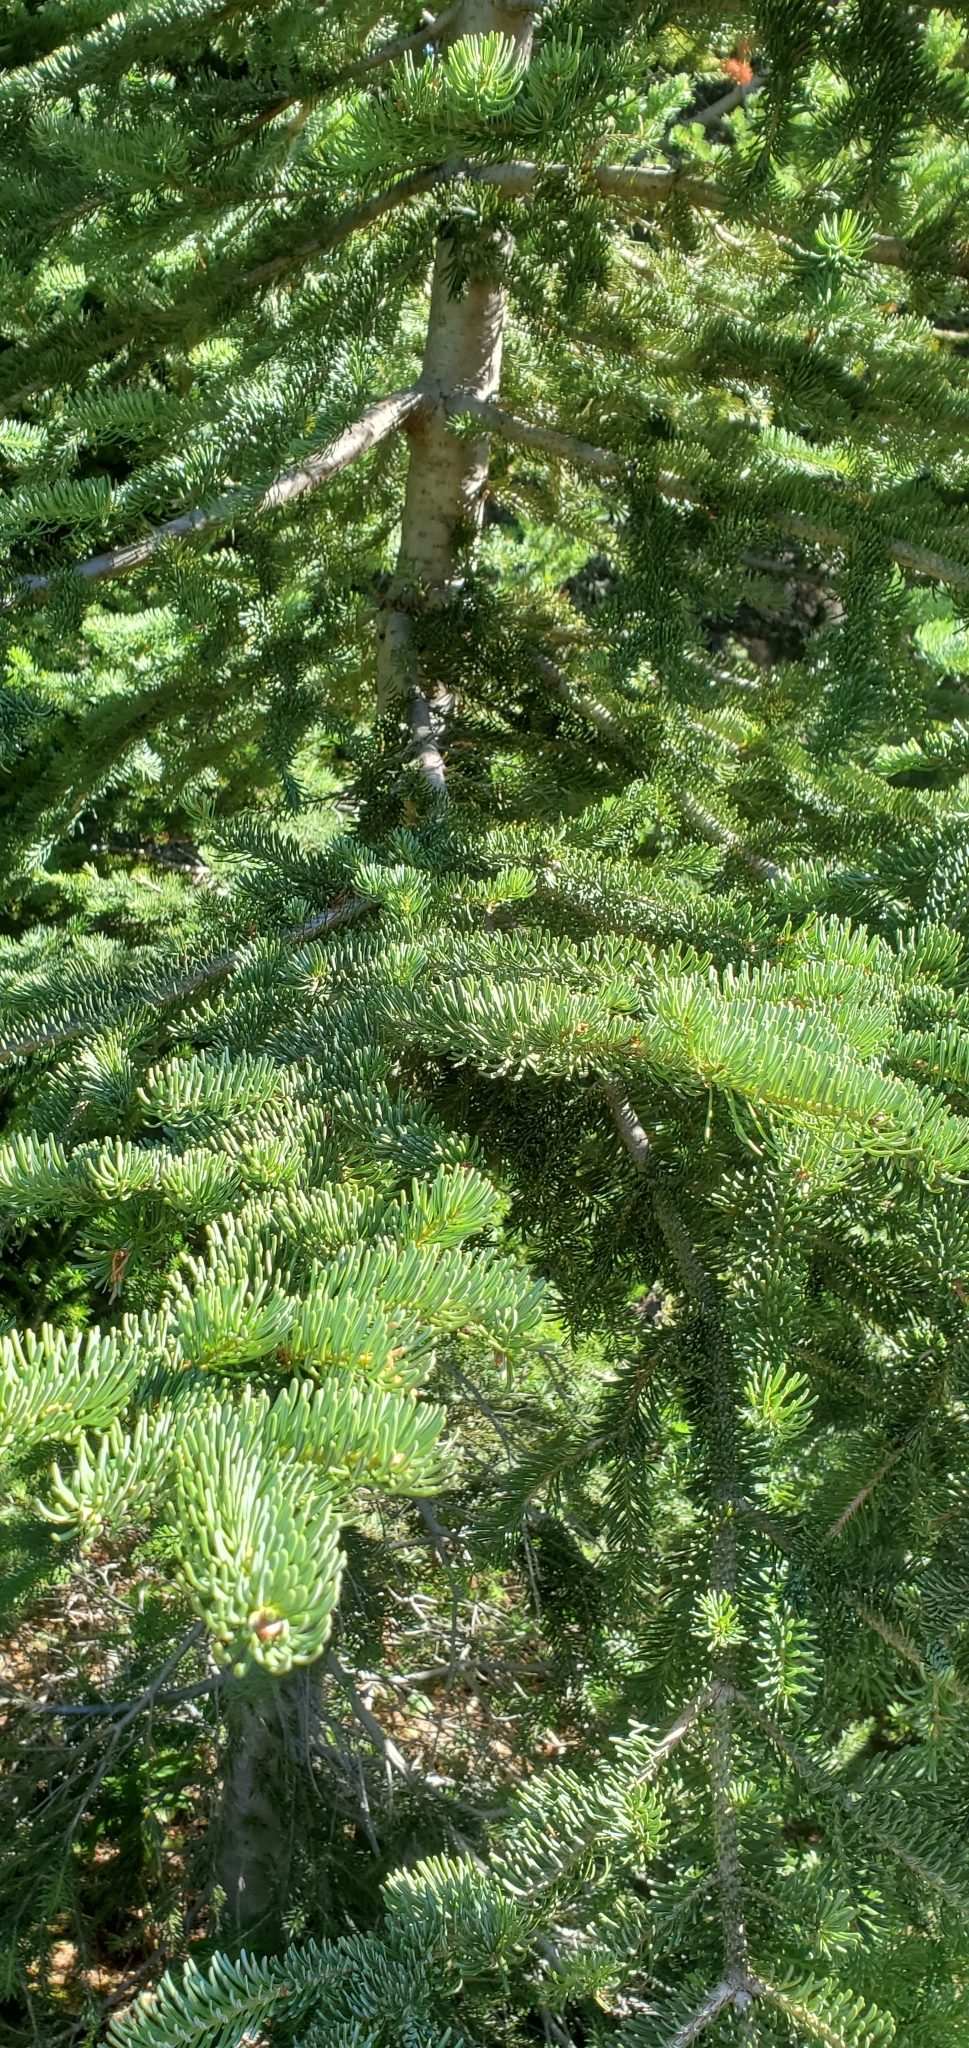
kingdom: Plantae
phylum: Tracheophyta
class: Pinopsida
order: Pinales
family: Pinaceae
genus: Abies
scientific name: Abies lasiocarpa
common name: Subalpine fir
